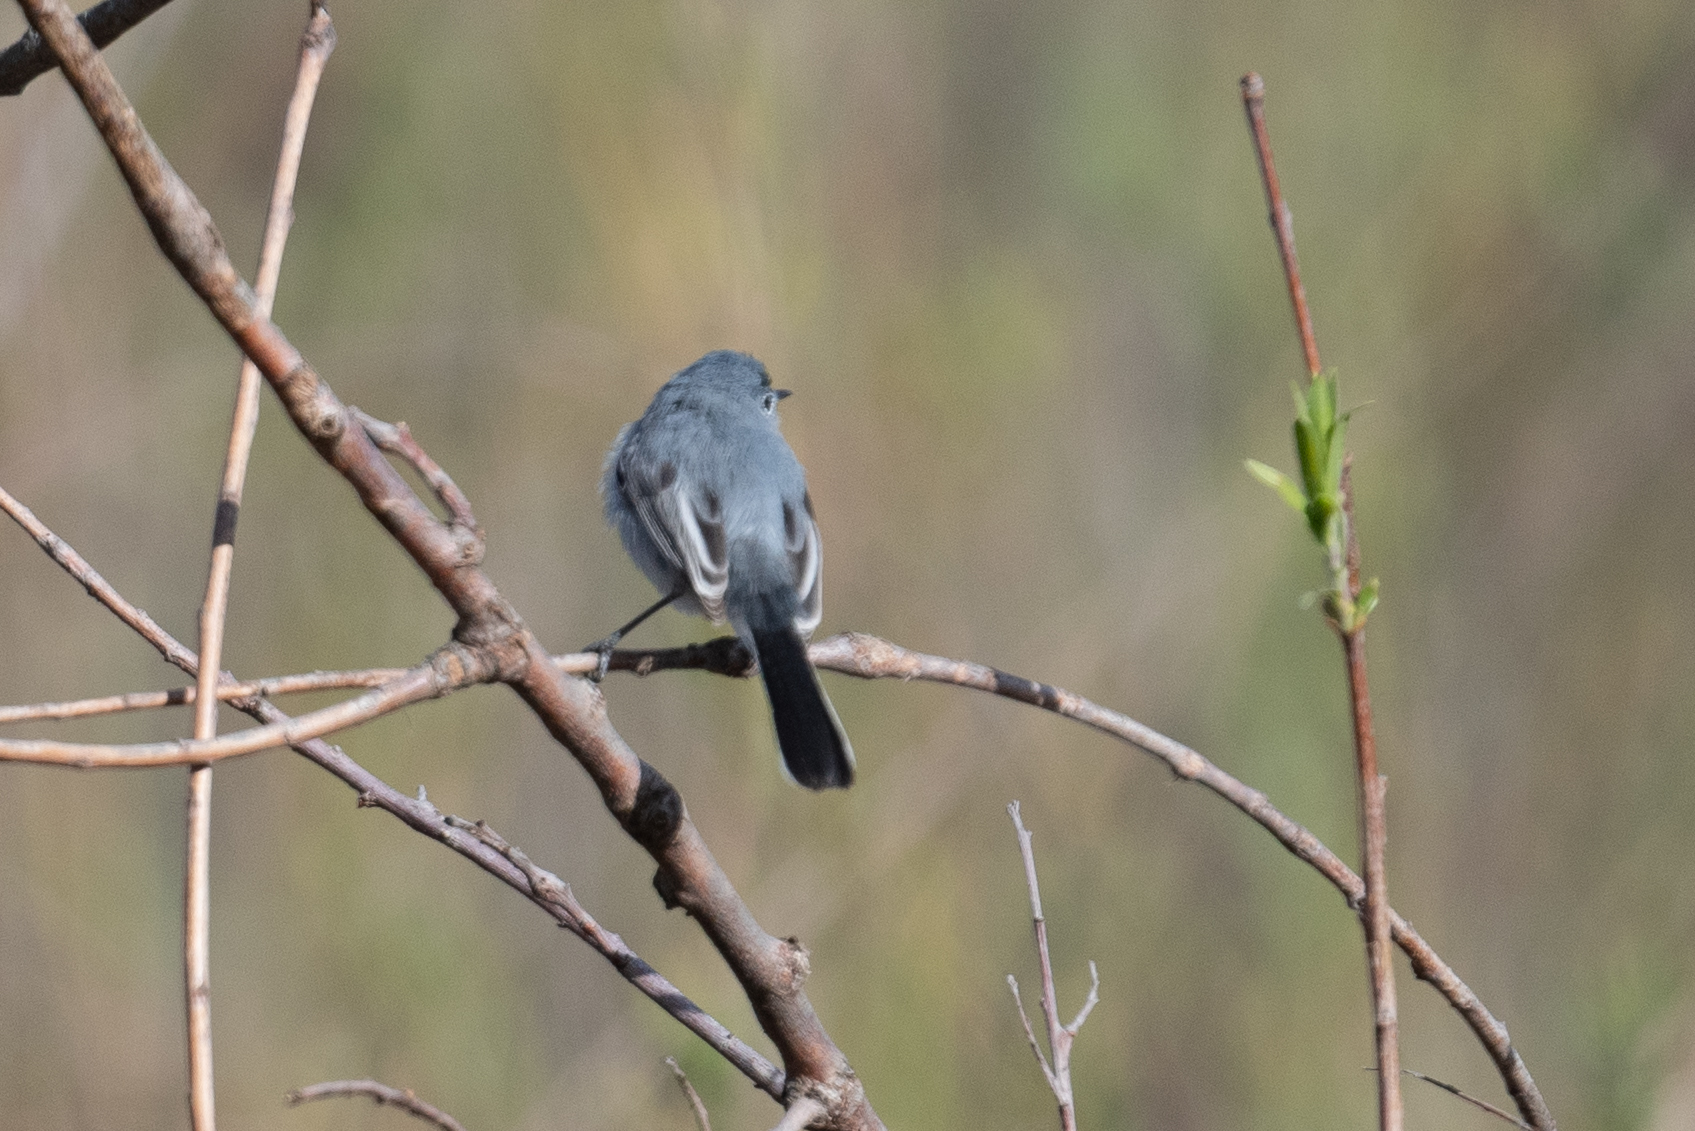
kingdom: Animalia
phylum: Chordata
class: Aves
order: Passeriformes
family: Polioptilidae
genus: Polioptila
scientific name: Polioptila caerulea
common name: Blue-gray gnatcatcher
